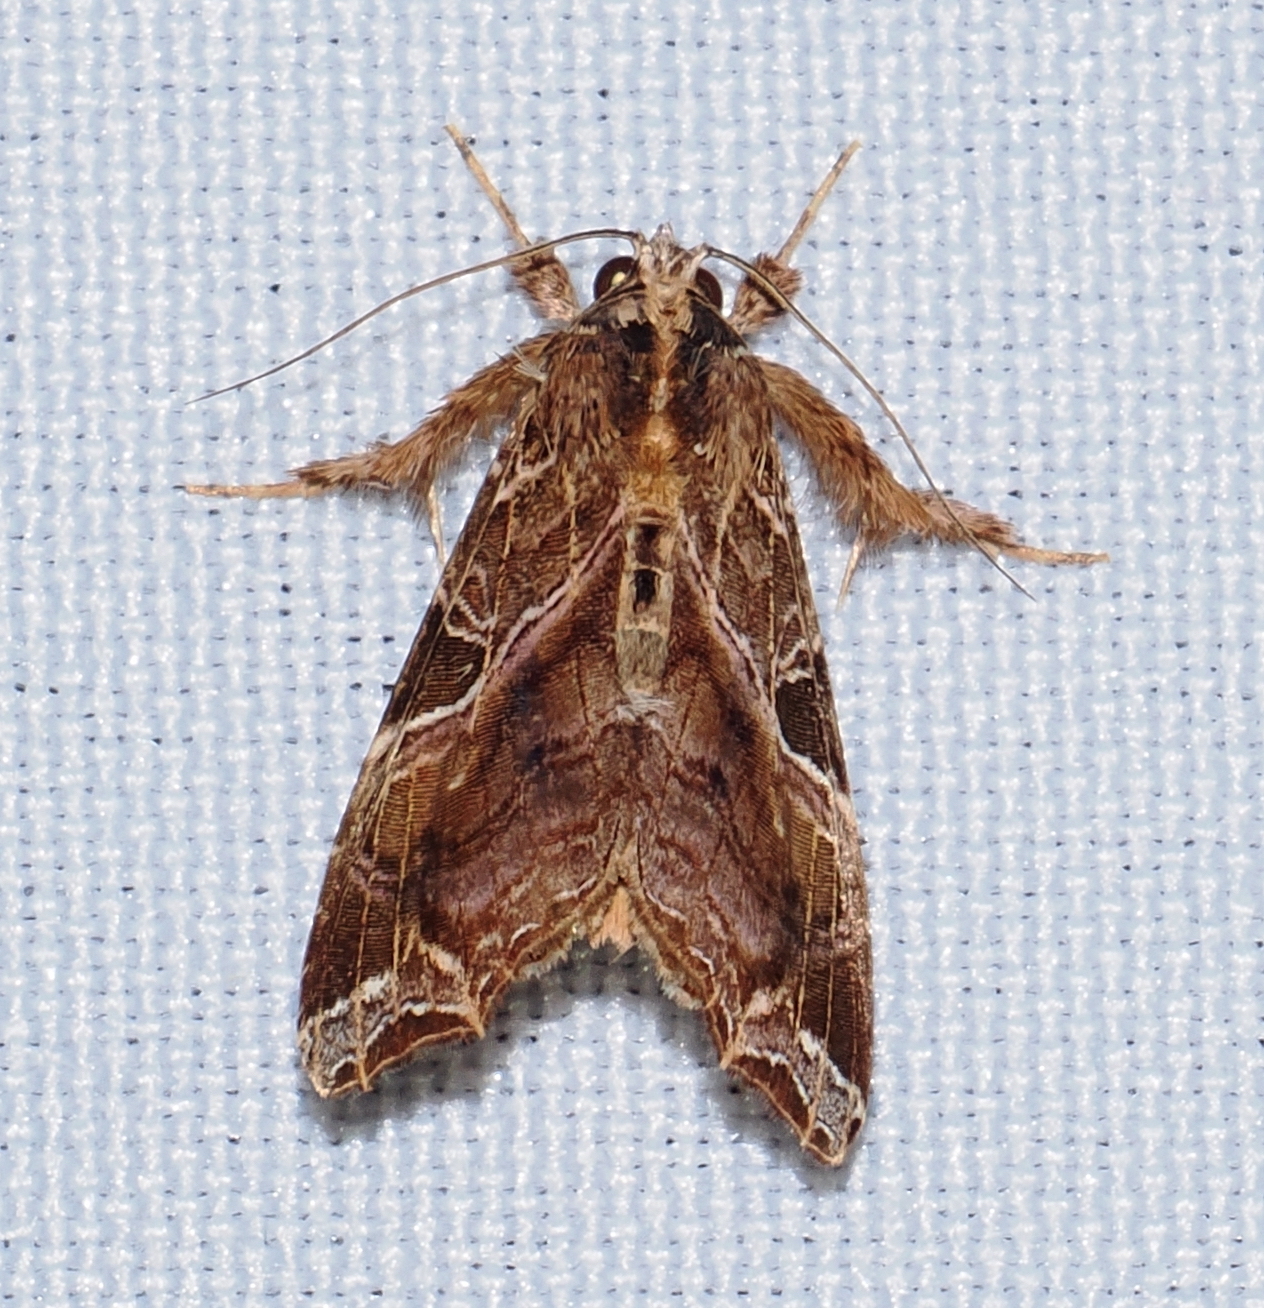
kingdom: Animalia
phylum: Arthropoda
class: Insecta
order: Lepidoptera
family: Noctuidae
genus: Callopistria
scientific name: Callopistria floridensis
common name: Florida fern moth
